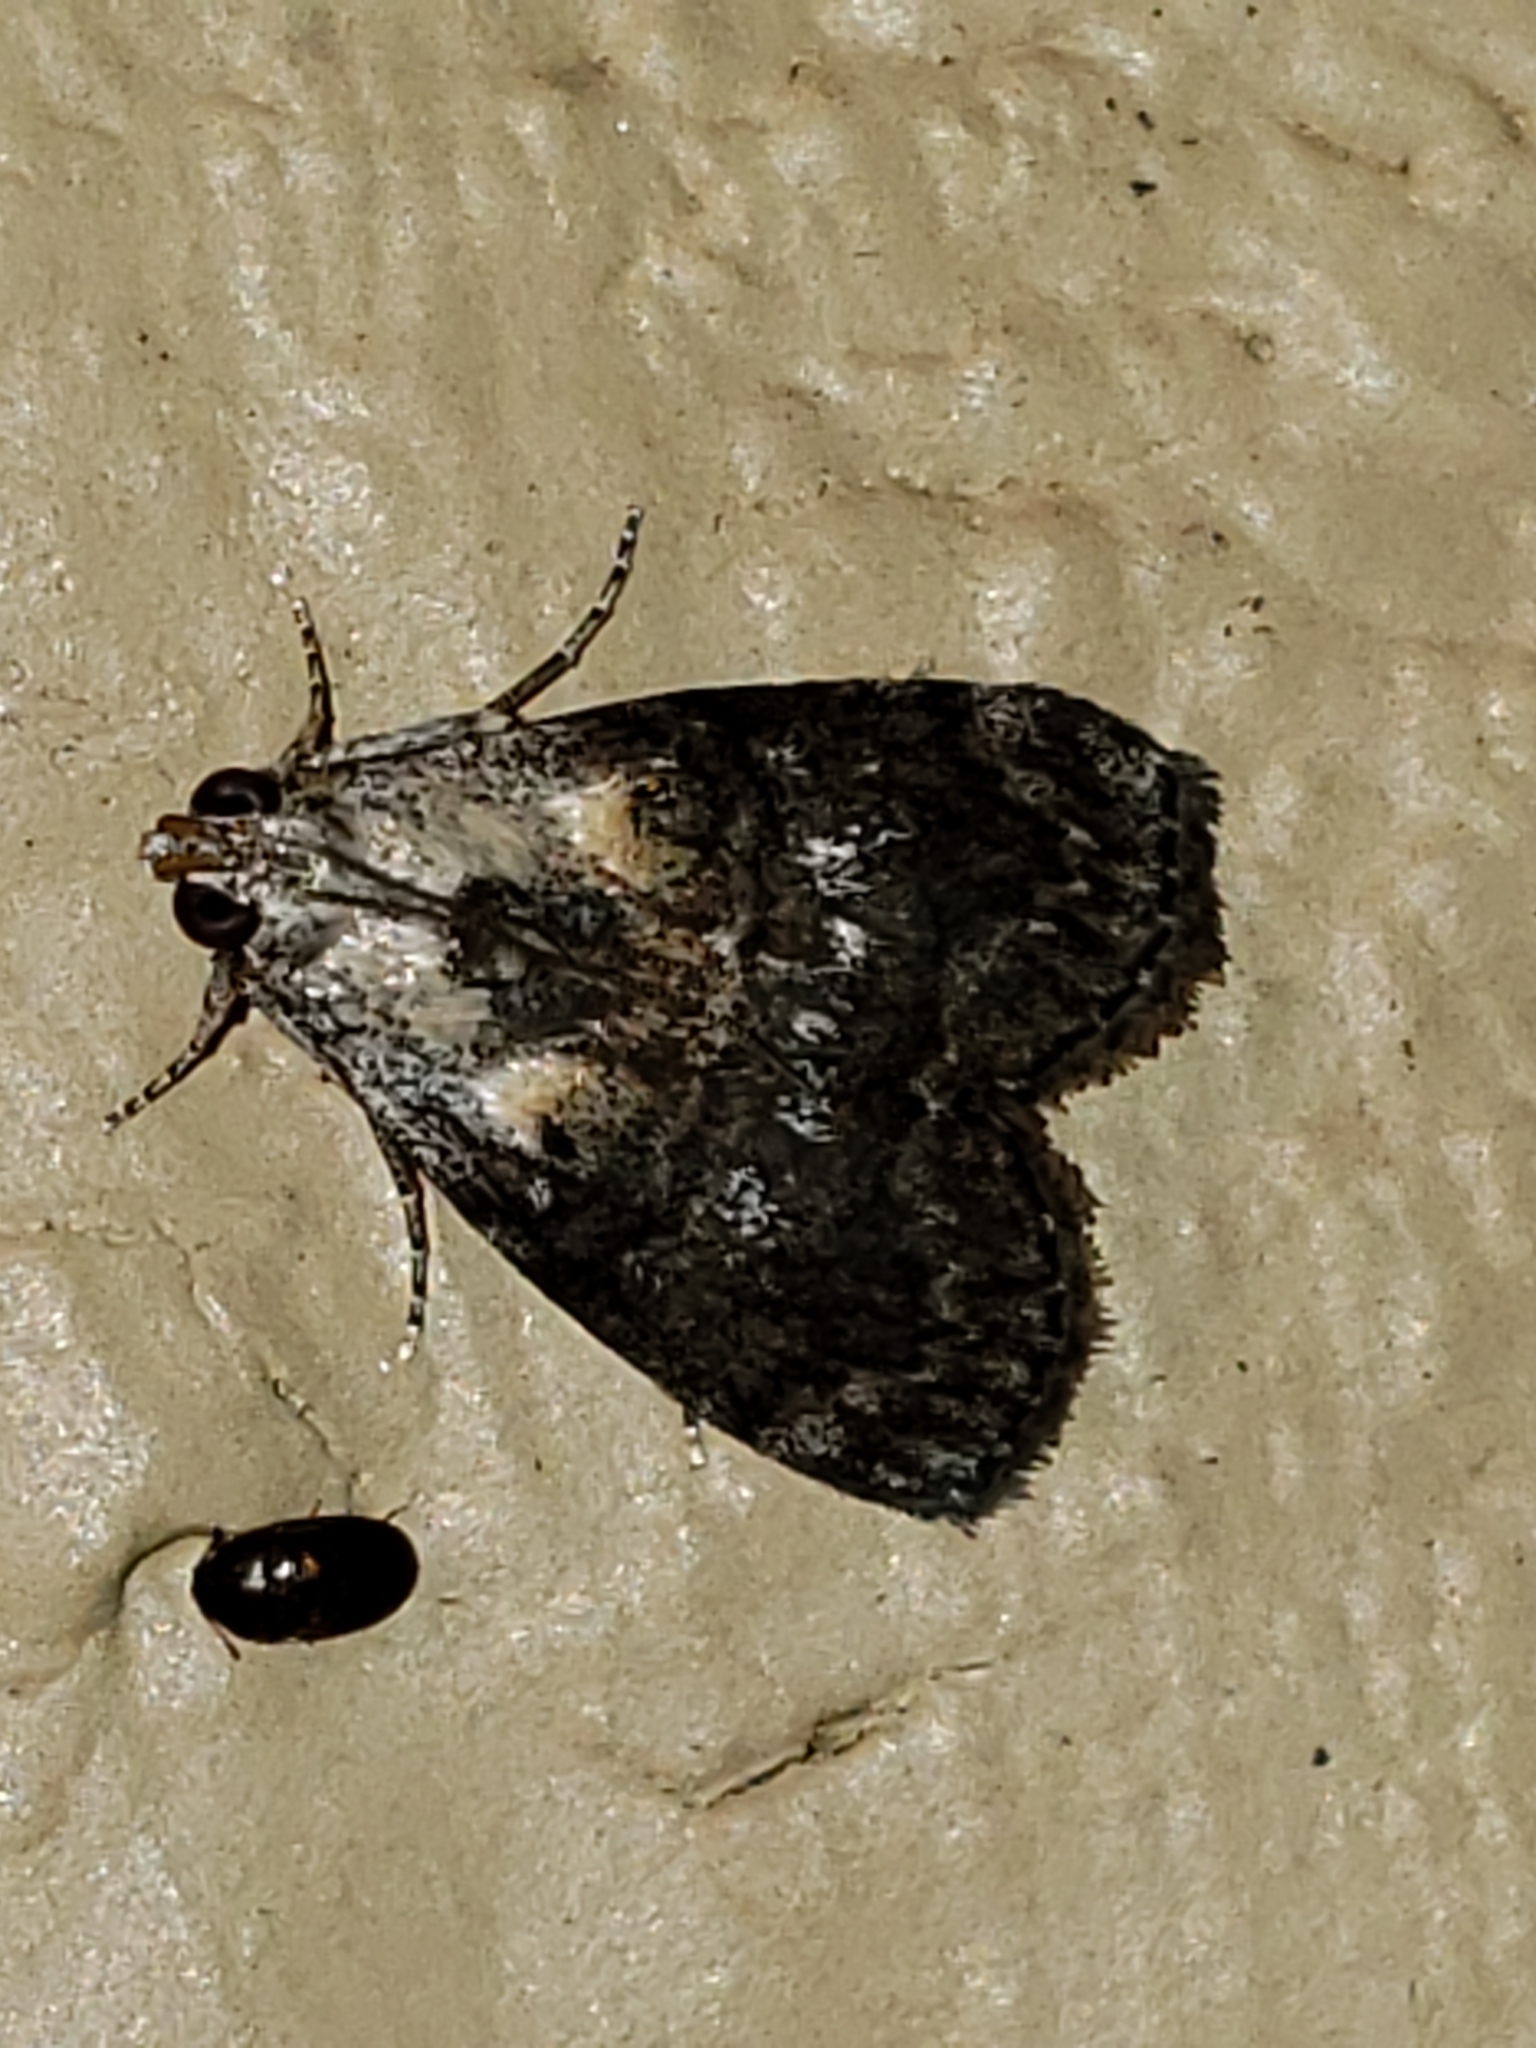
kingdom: Animalia
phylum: Arthropoda
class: Insecta
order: Lepidoptera
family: Pyralidae
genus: Pococera
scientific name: Pococera expandens
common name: Striped oak webworm moth
